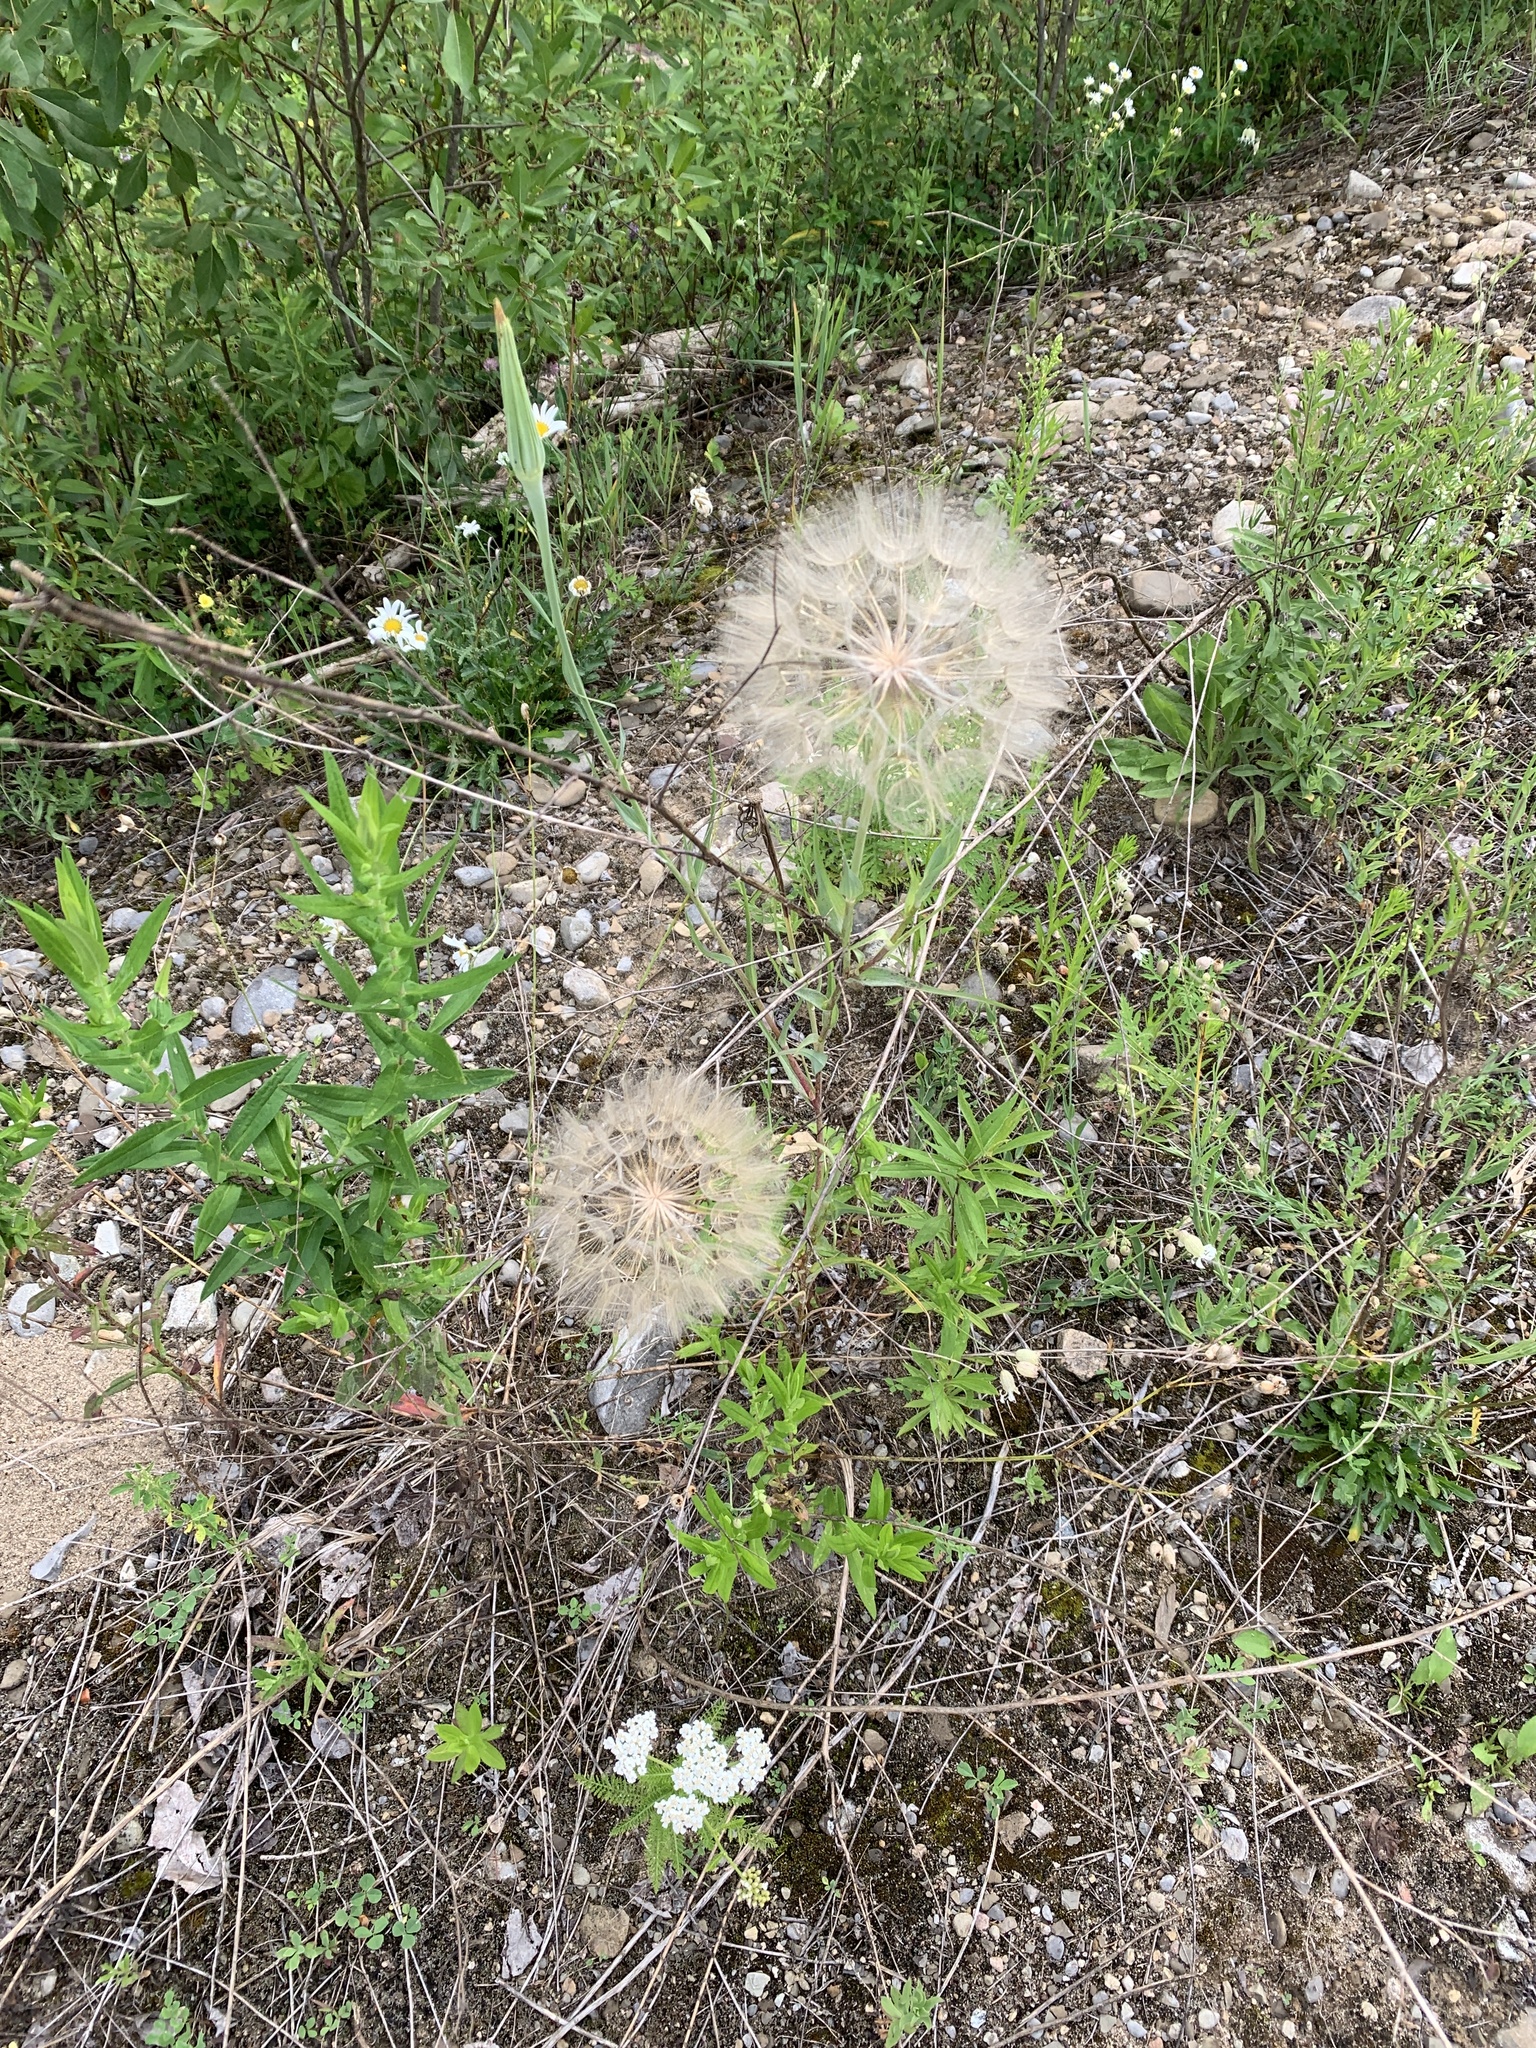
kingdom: Plantae
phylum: Tracheophyta
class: Magnoliopsida
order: Asterales
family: Asteraceae
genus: Tragopogon
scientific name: Tragopogon dubius
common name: Yellow salsify
